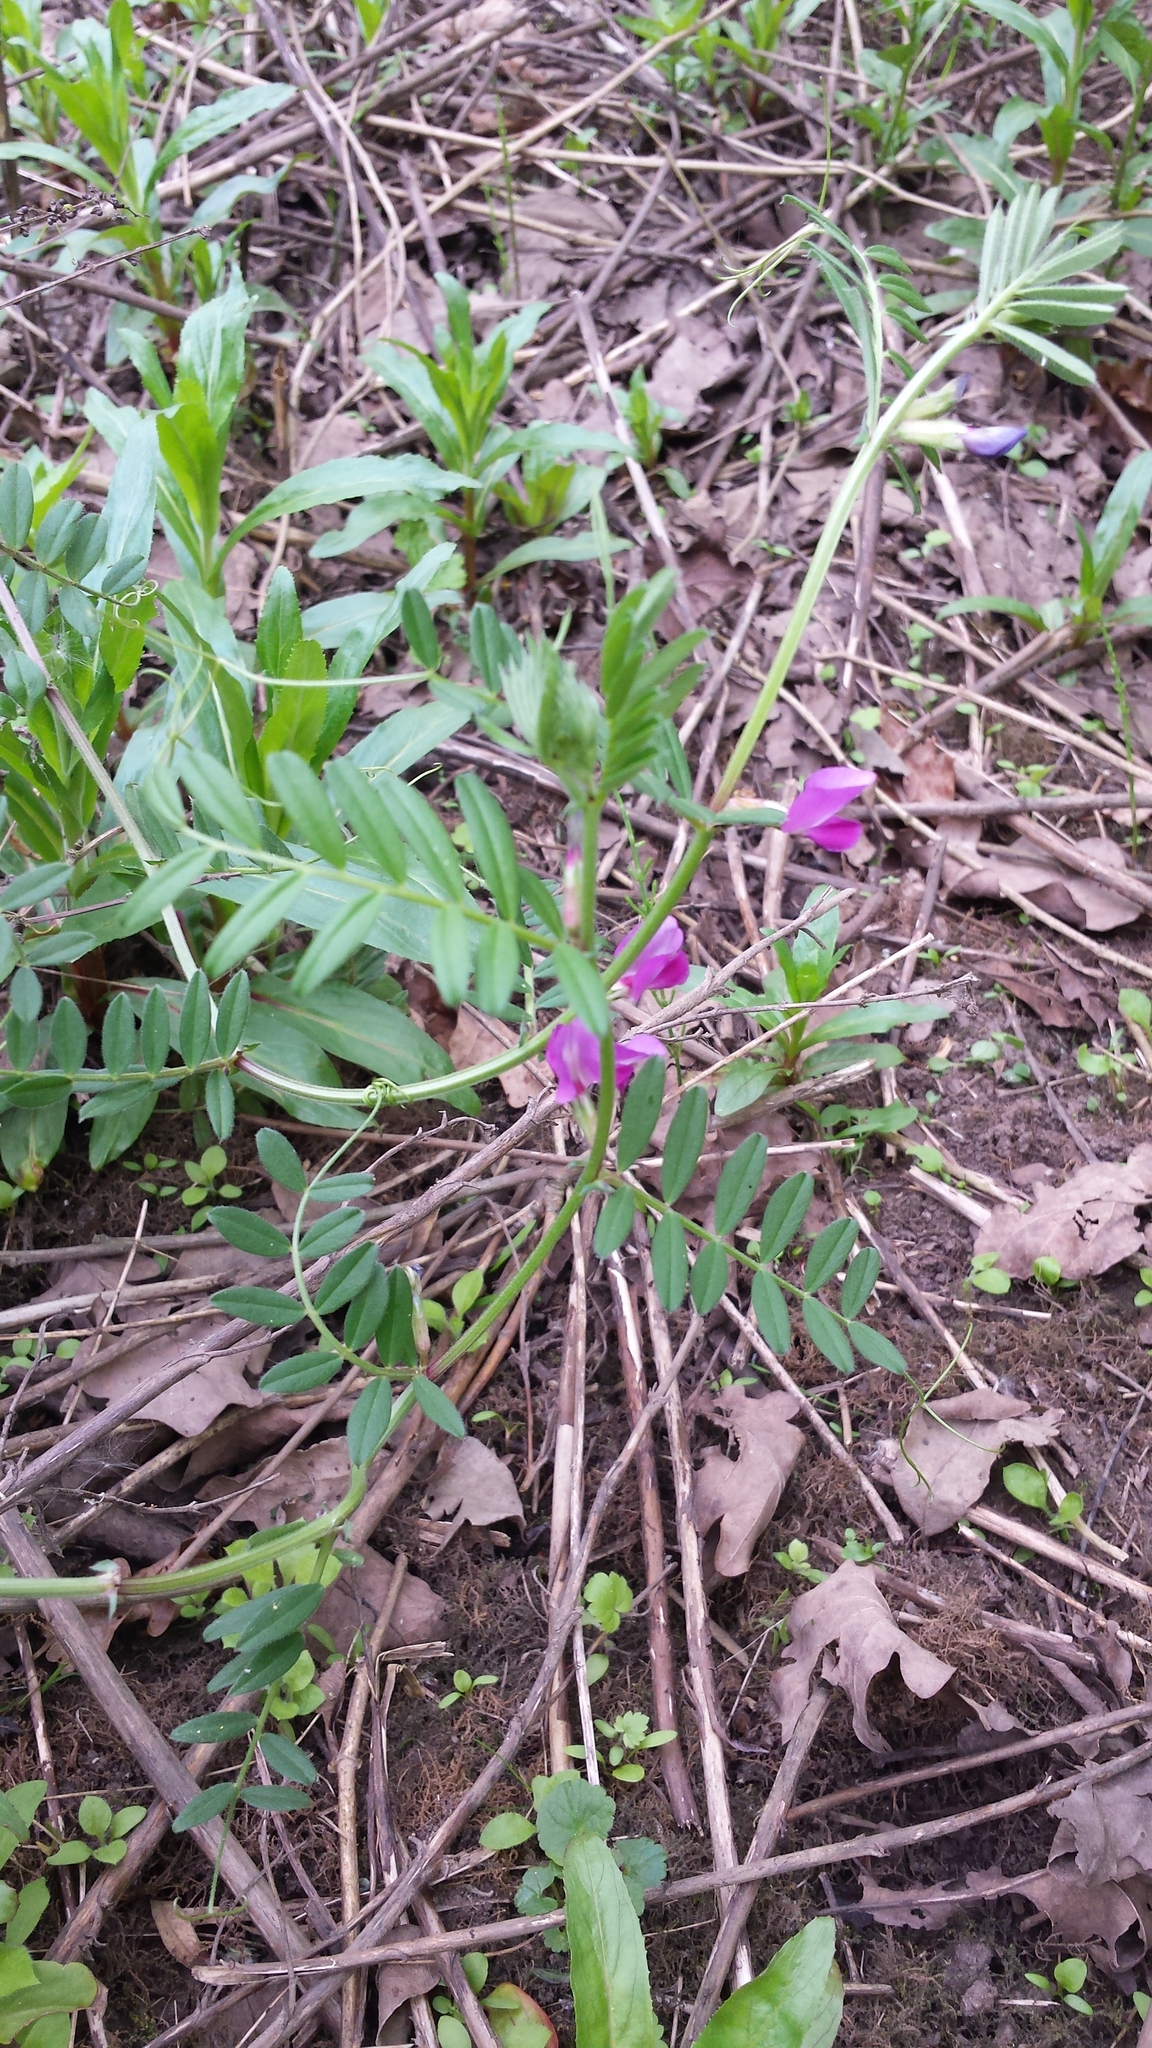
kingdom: Plantae
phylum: Tracheophyta
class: Magnoliopsida
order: Fabales
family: Fabaceae
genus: Vicia
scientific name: Vicia sativa
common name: Garden vetch
